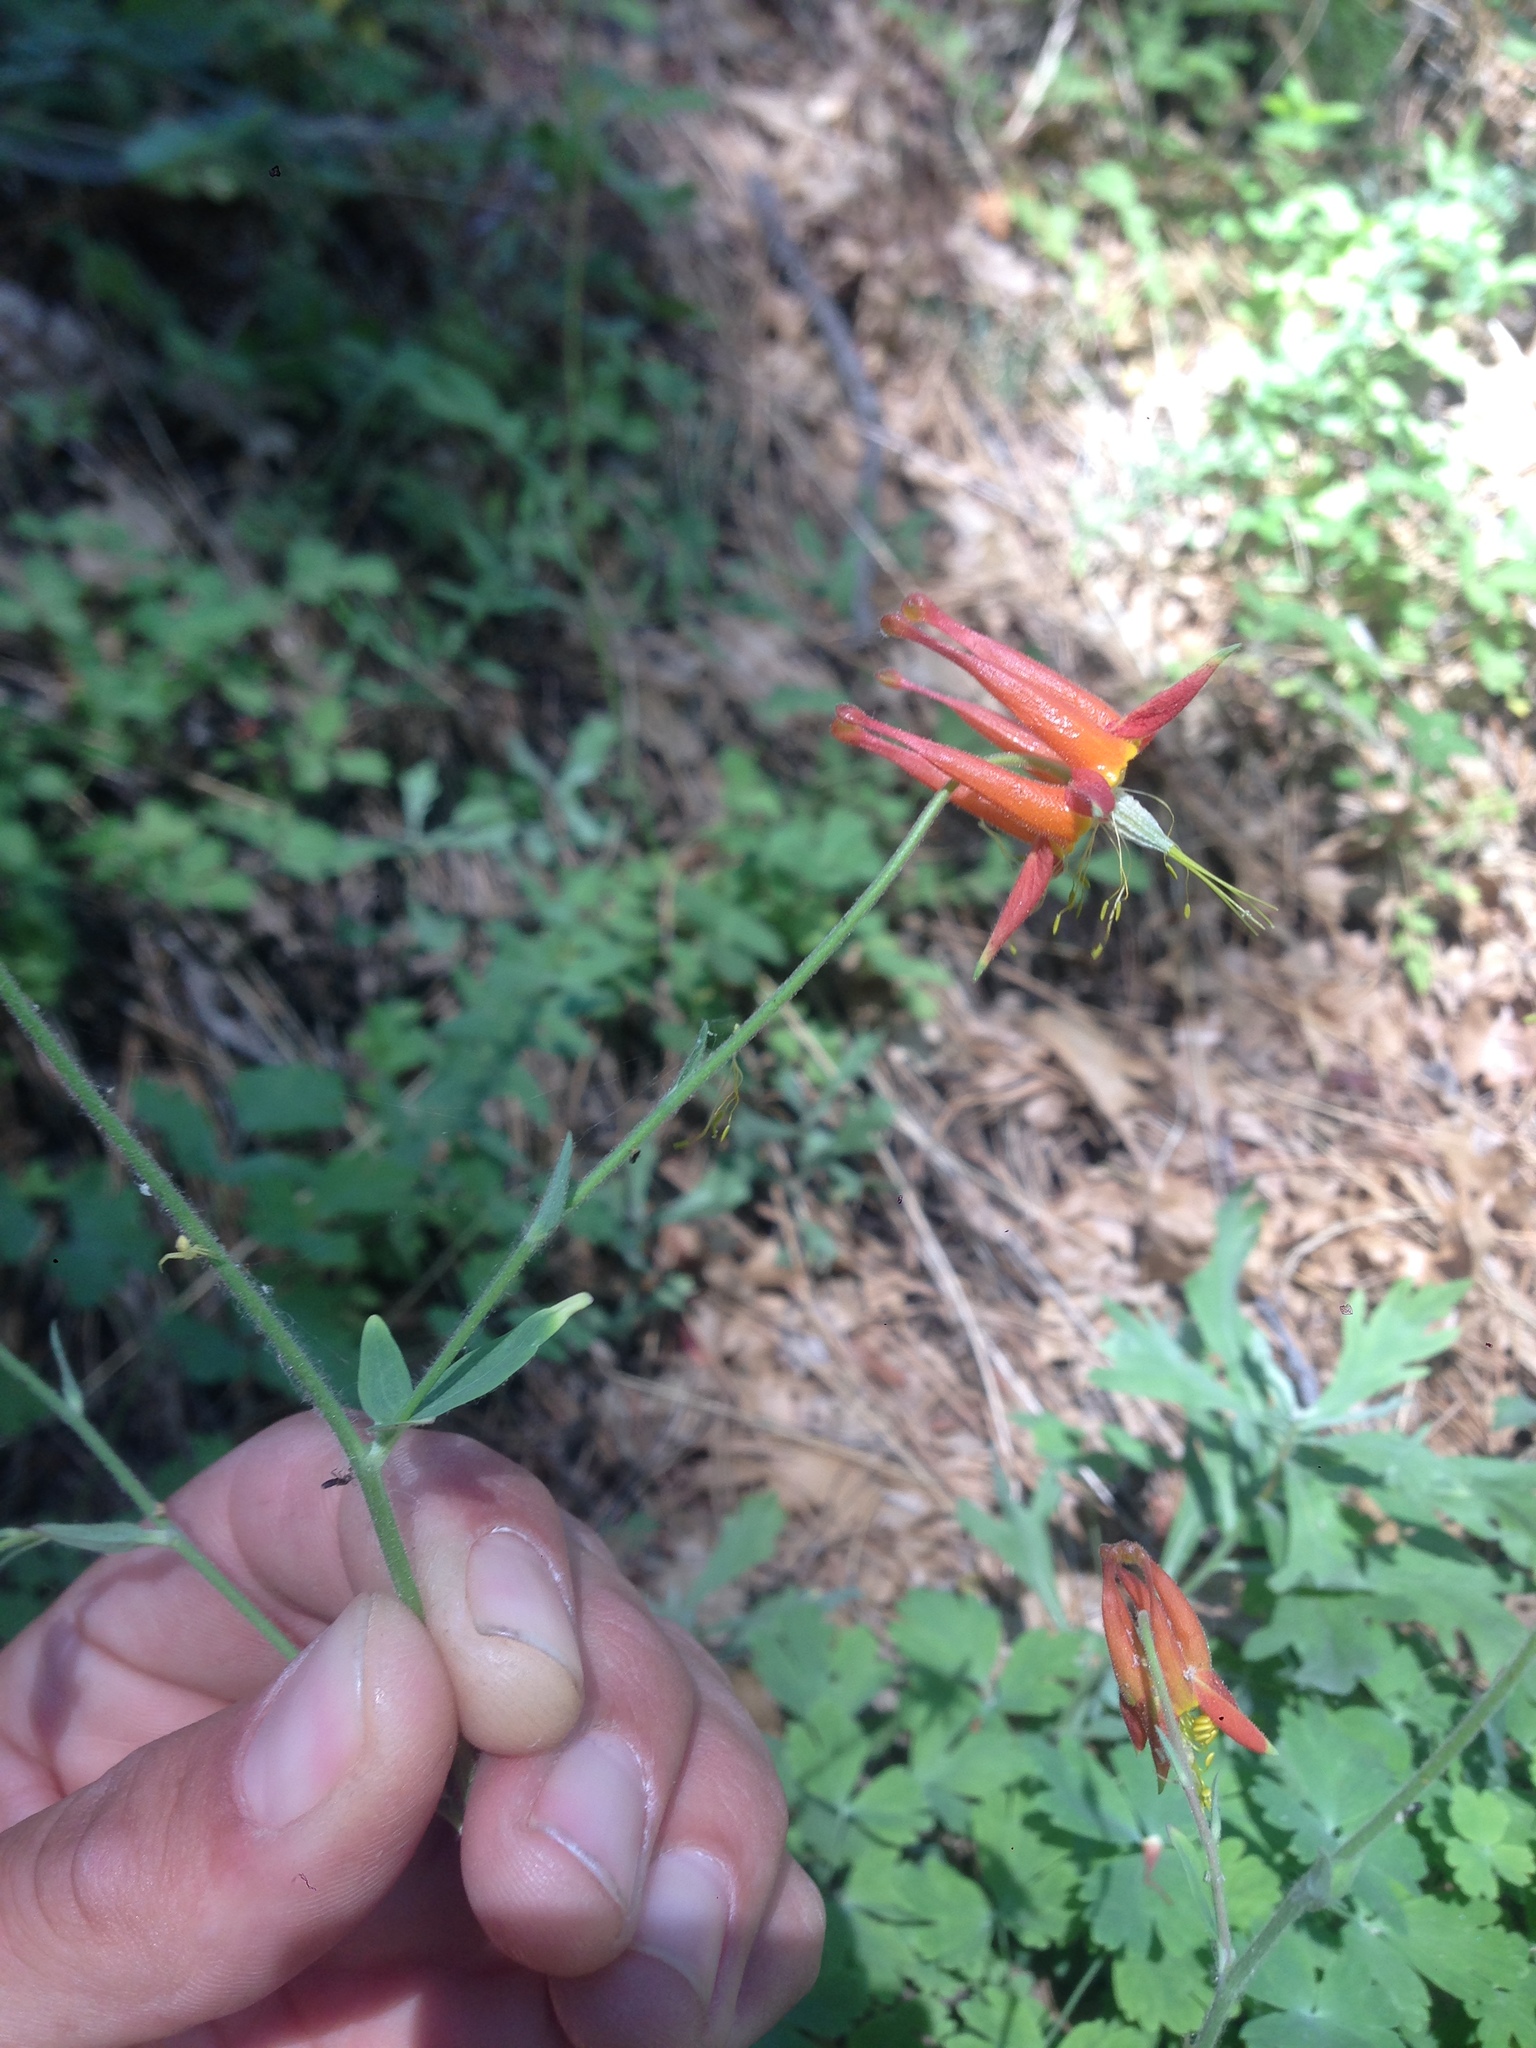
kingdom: Plantae
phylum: Tracheophyta
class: Magnoliopsida
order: Ranunculales
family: Ranunculaceae
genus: Aquilegia
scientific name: Aquilegia formosa
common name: Sitka columbine
